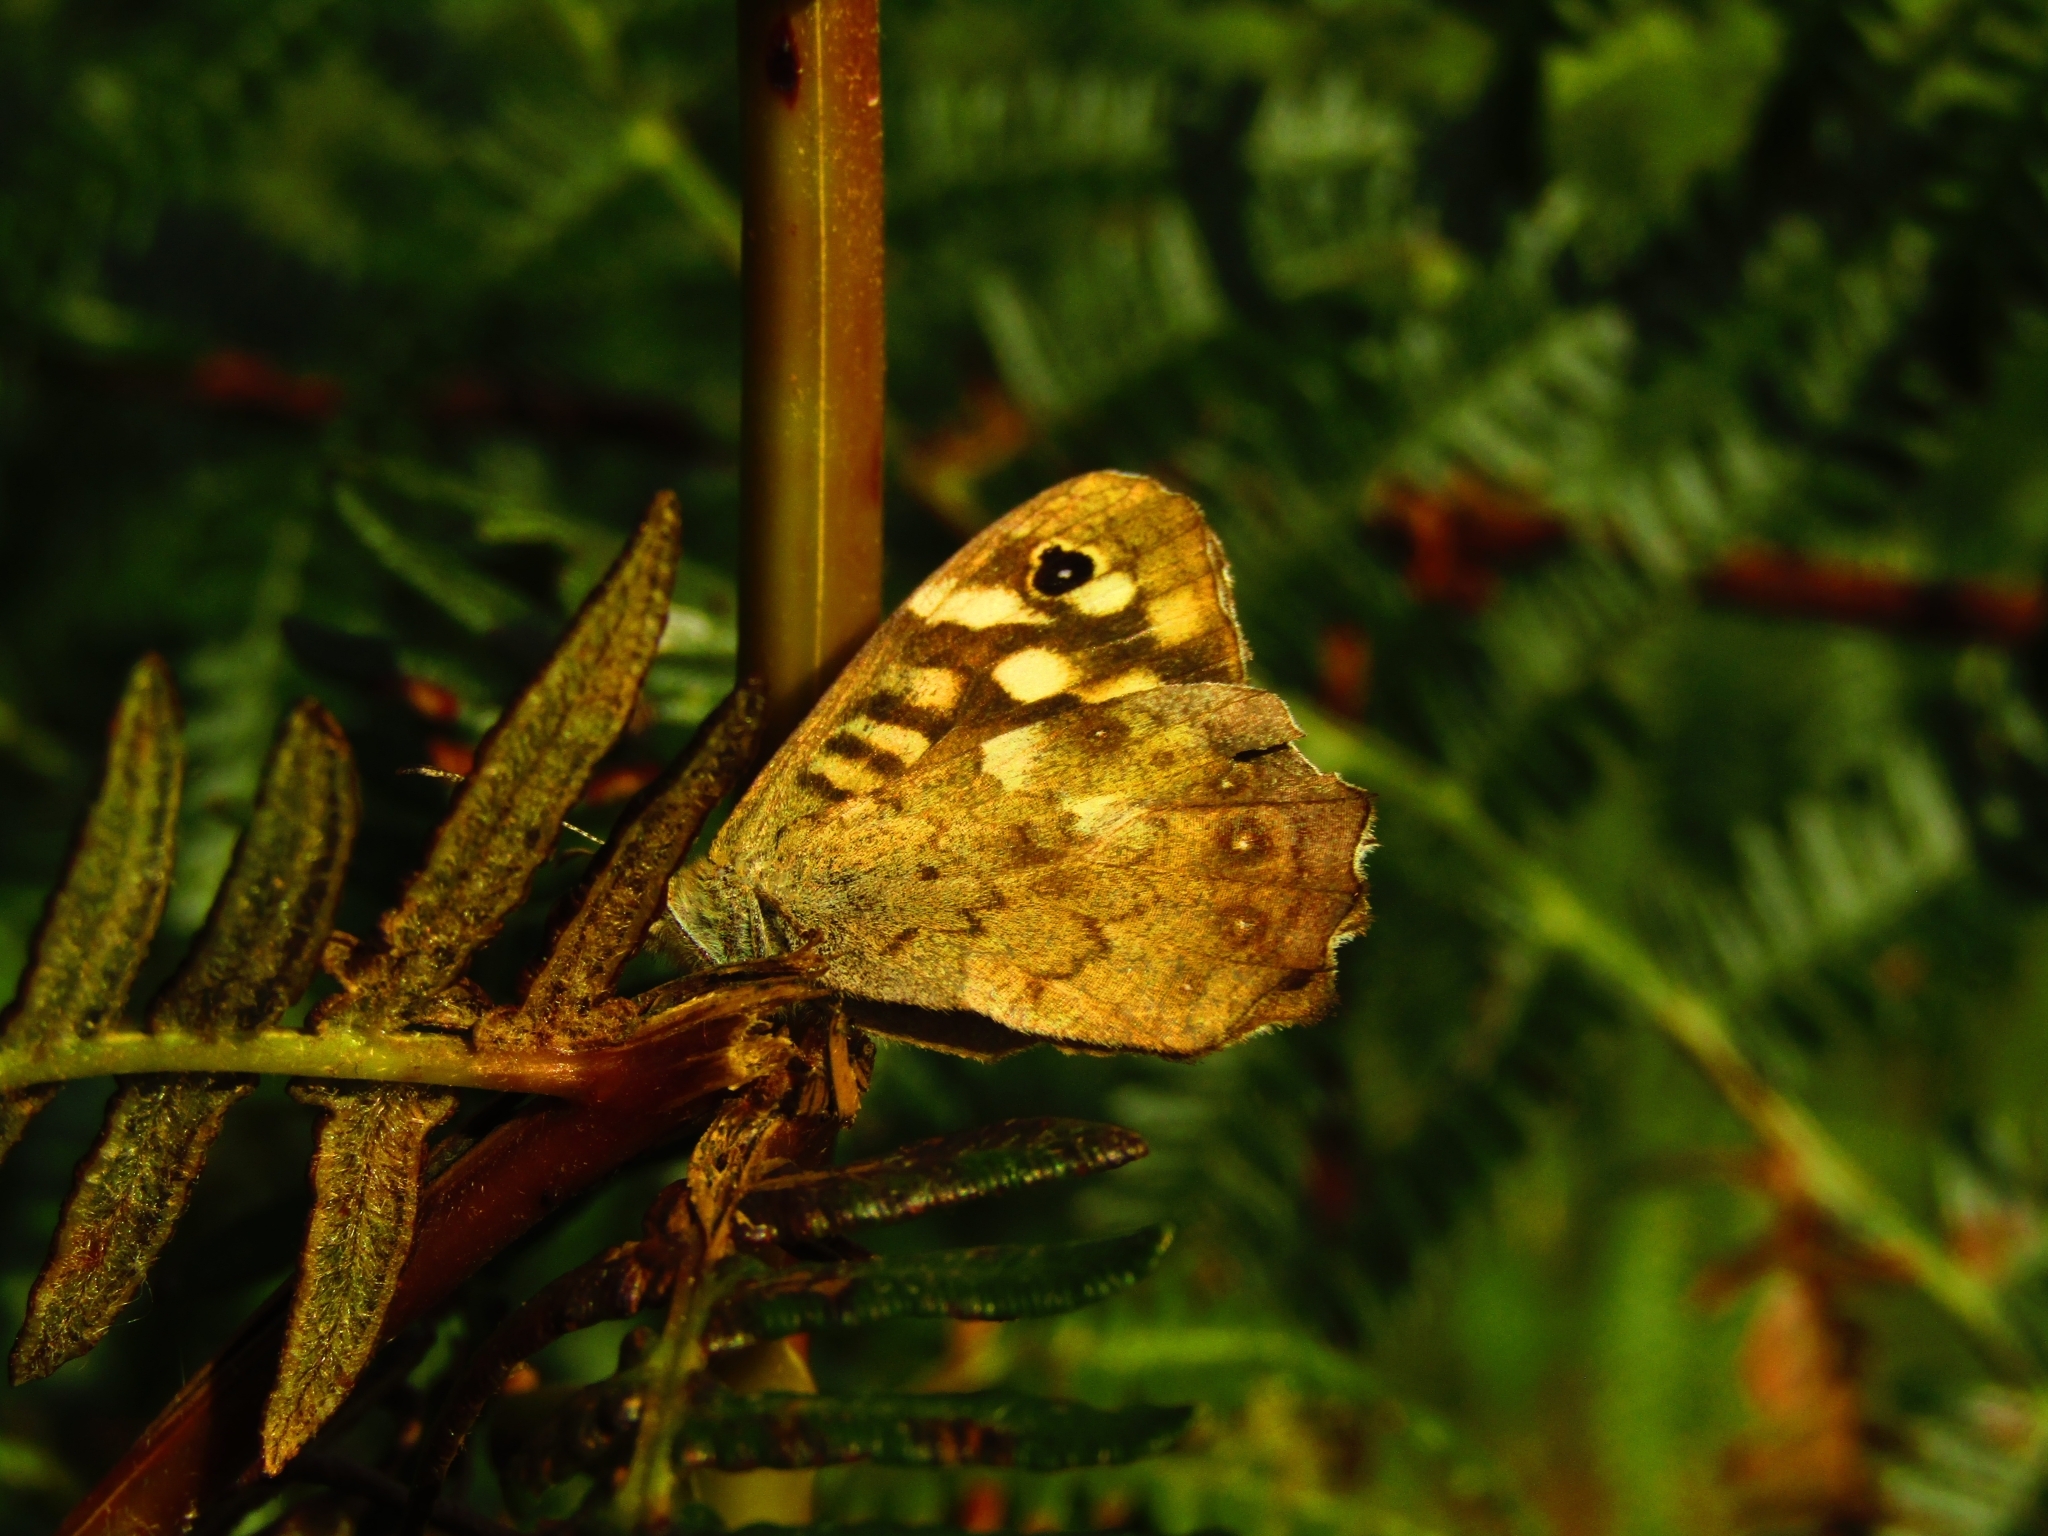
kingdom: Animalia
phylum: Arthropoda
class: Insecta
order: Lepidoptera
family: Nymphalidae
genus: Pararge
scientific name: Pararge aegeria
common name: Speckled wood
